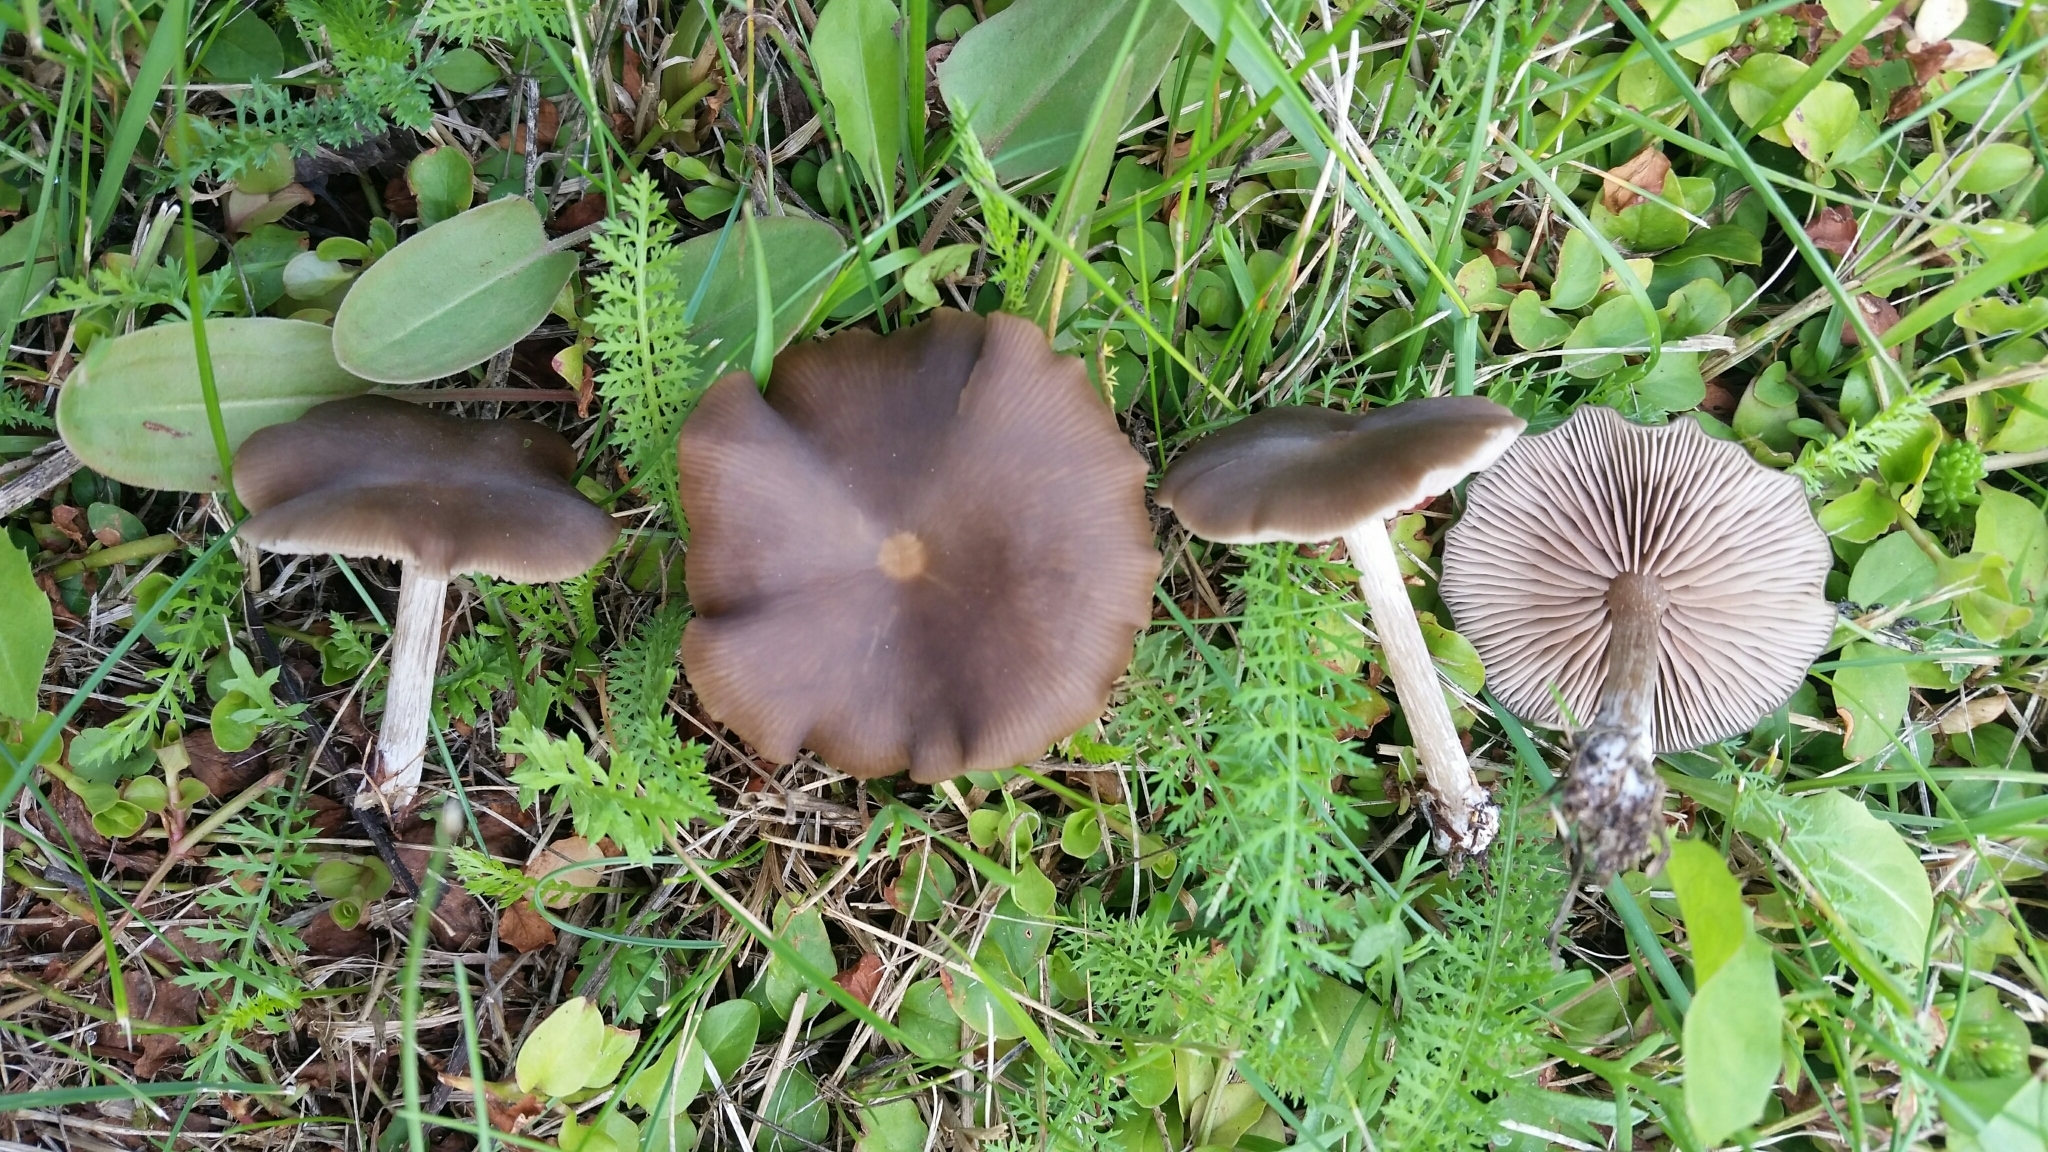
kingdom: Fungi
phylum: Basidiomycota
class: Agaricomycetes
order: Agaricales
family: Entolomataceae
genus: Entoloma
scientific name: Entoloma sericeum
